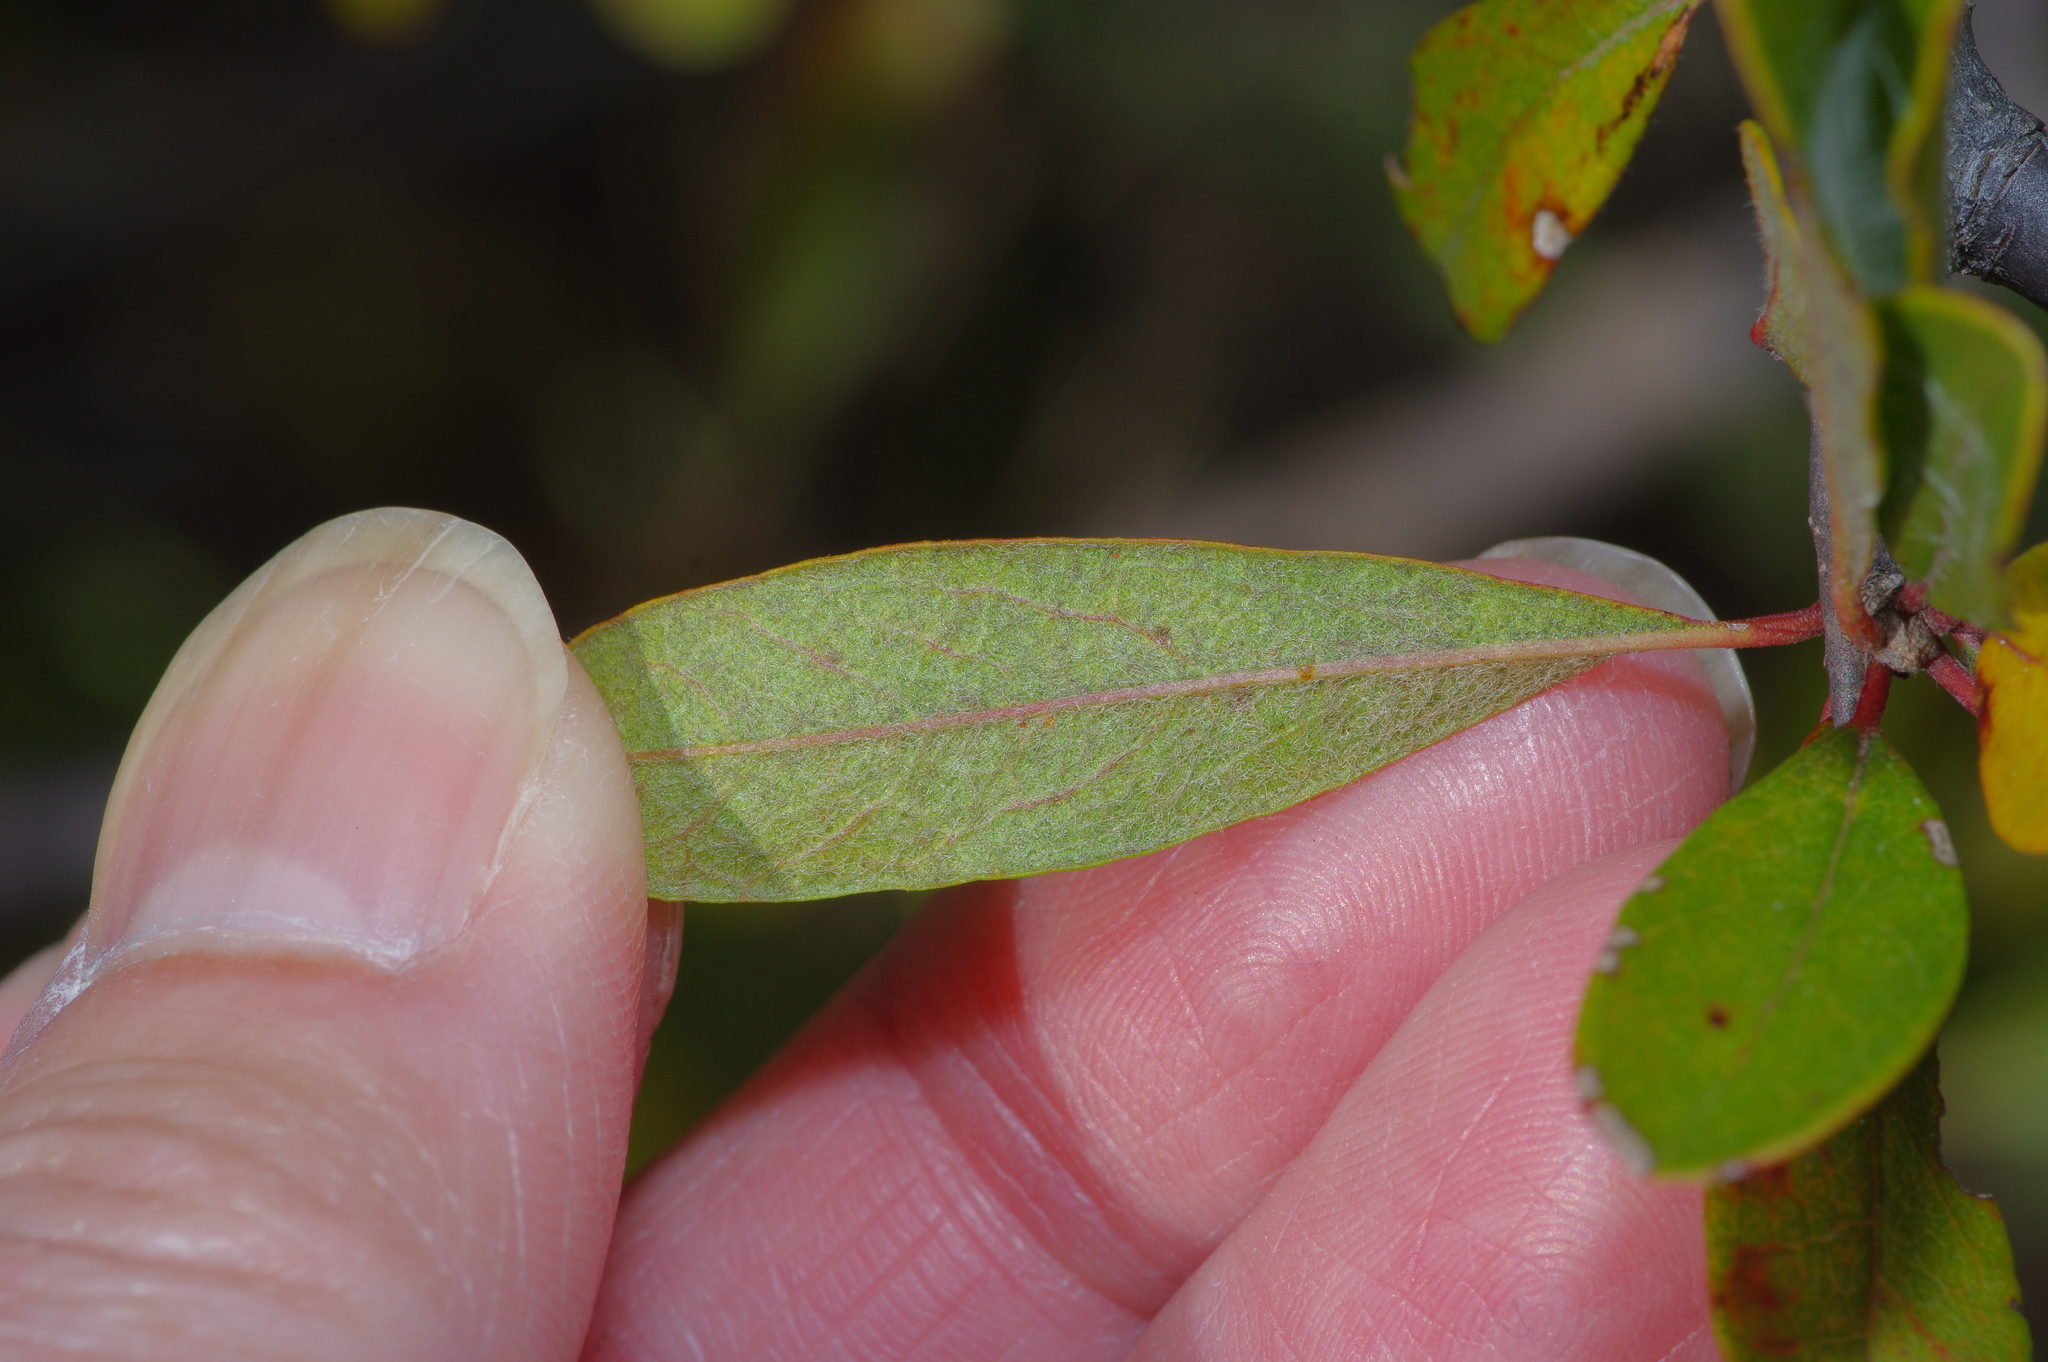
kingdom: Plantae
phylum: Tracheophyta
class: Magnoliopsida
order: Ericales
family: Sapotaceae
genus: Sideroxylon
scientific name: Sideroxylon lanuginosum
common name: Chittamwood
